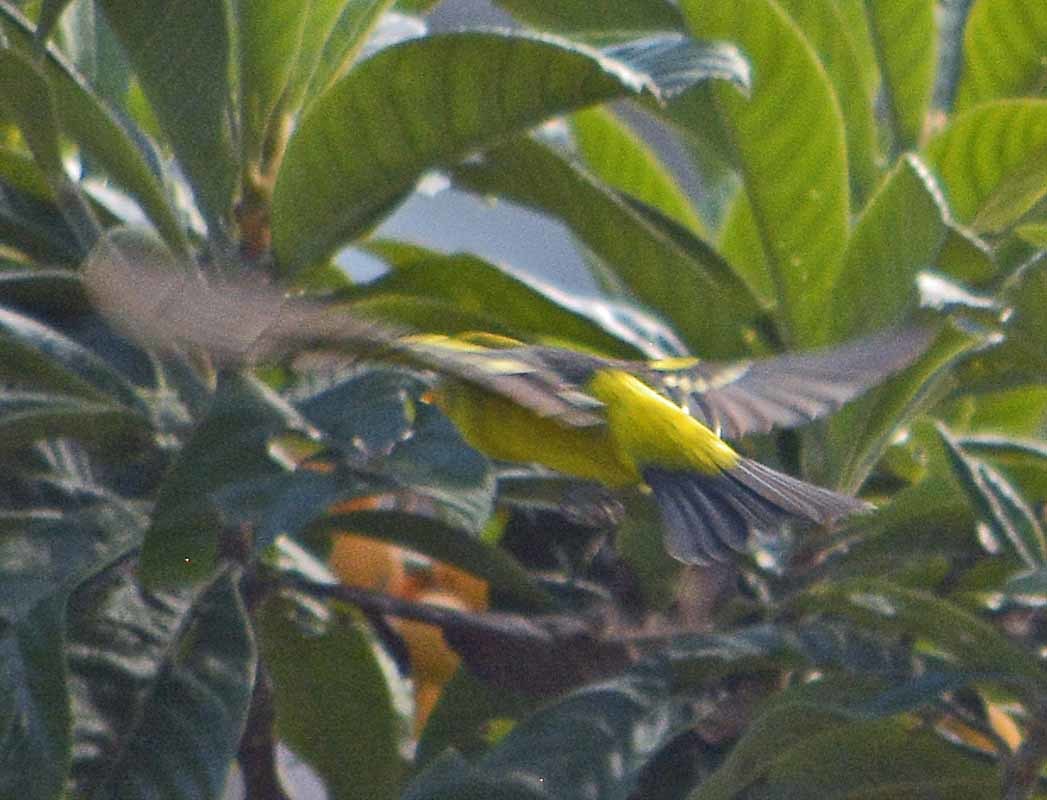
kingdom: Animalia
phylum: Chordata
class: Aves
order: Passeriformes
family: Cardinalidae
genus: Piranga
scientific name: Piranga ludoviciana
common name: Western tanager
